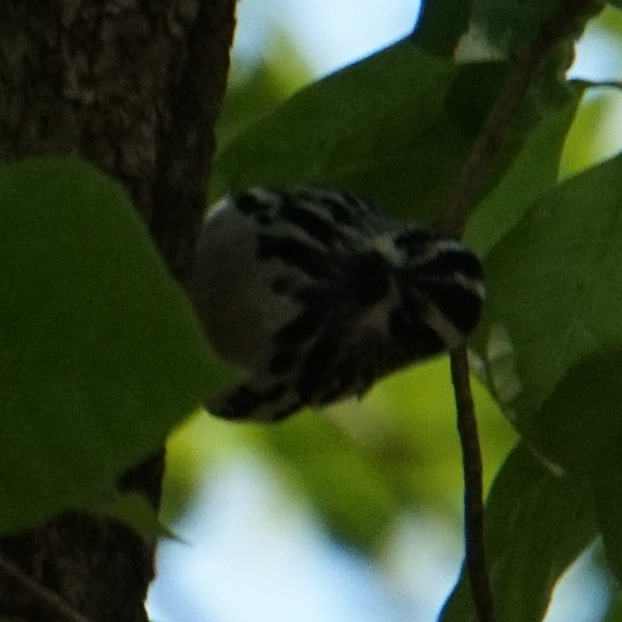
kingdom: Animalia
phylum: Chordata
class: Aves
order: Passeriformes
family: Parulidae
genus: Mniotilta
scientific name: Mniotilta varia
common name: Black-and-white warbler
